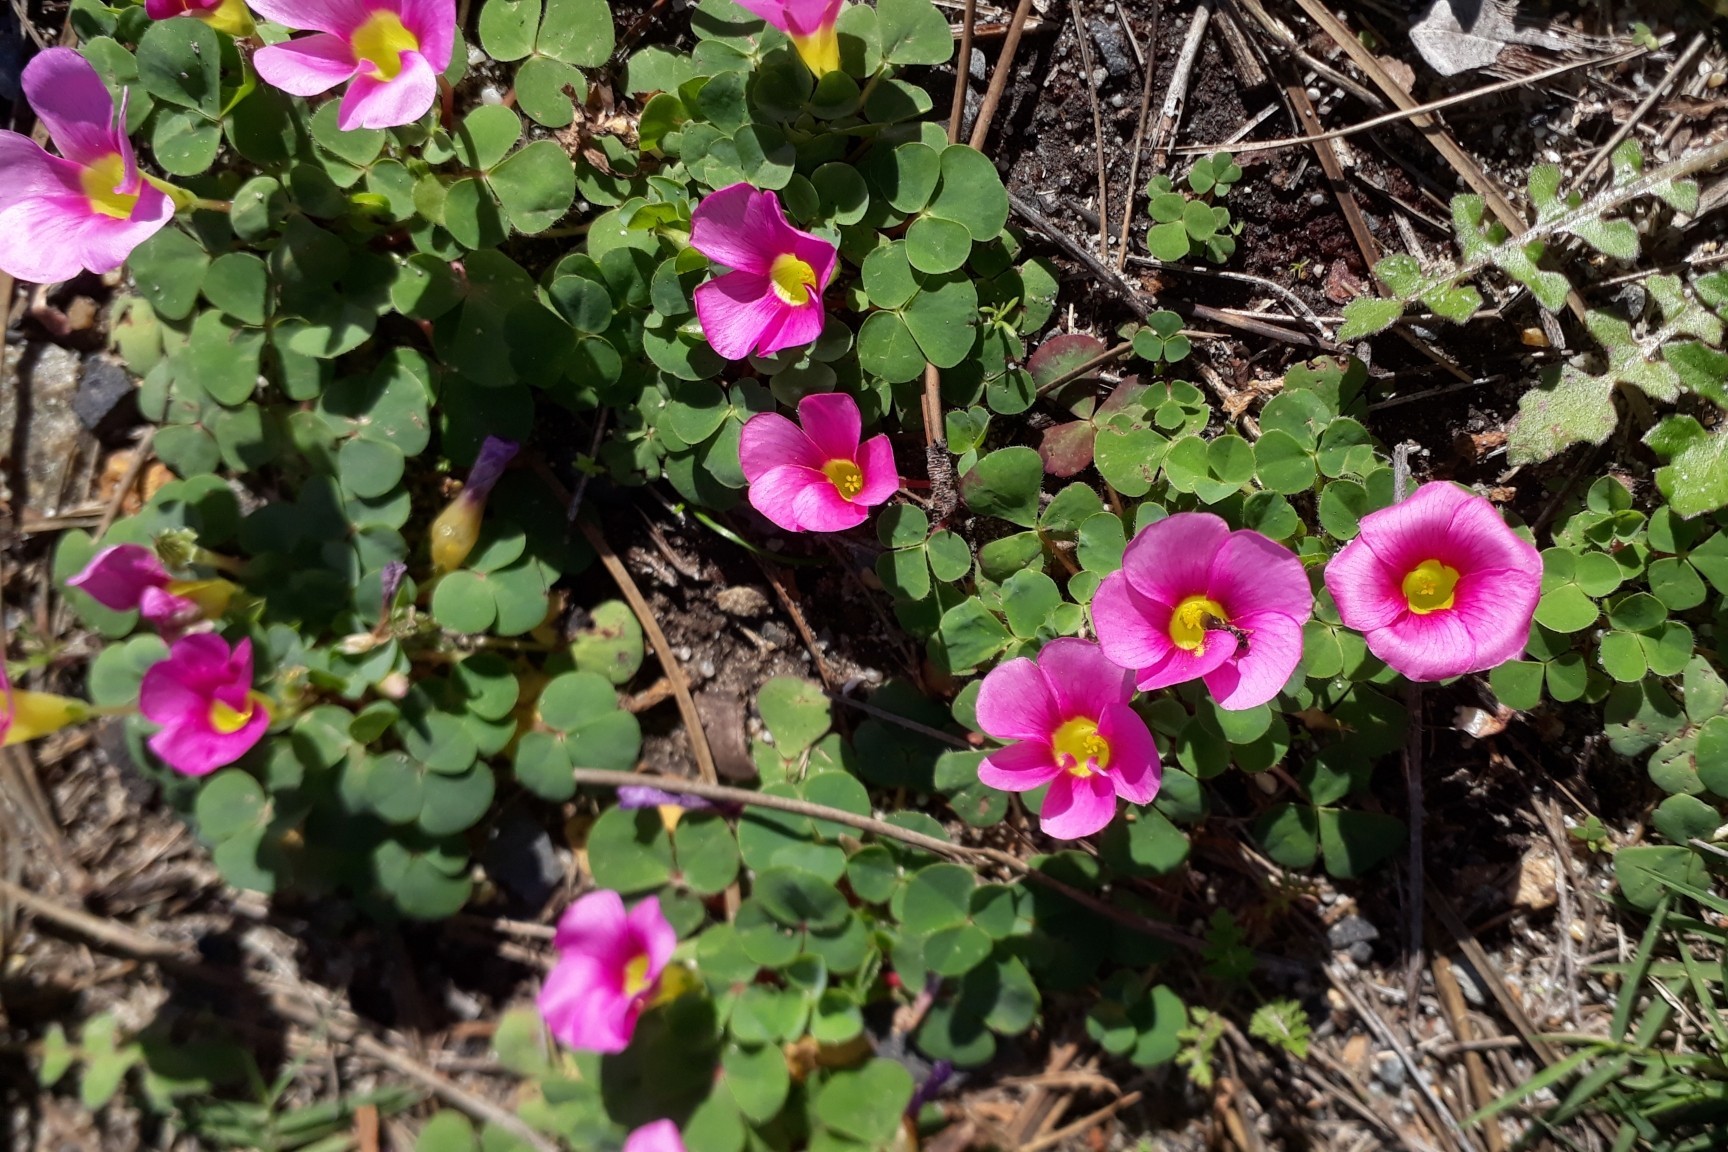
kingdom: Plantae
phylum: Tracheophyta
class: Magnoliopsida
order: Oxalidales
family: Oxalidaceae
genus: Oxalis
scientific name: Oxalis purpurea
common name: Purple woodsorrel
